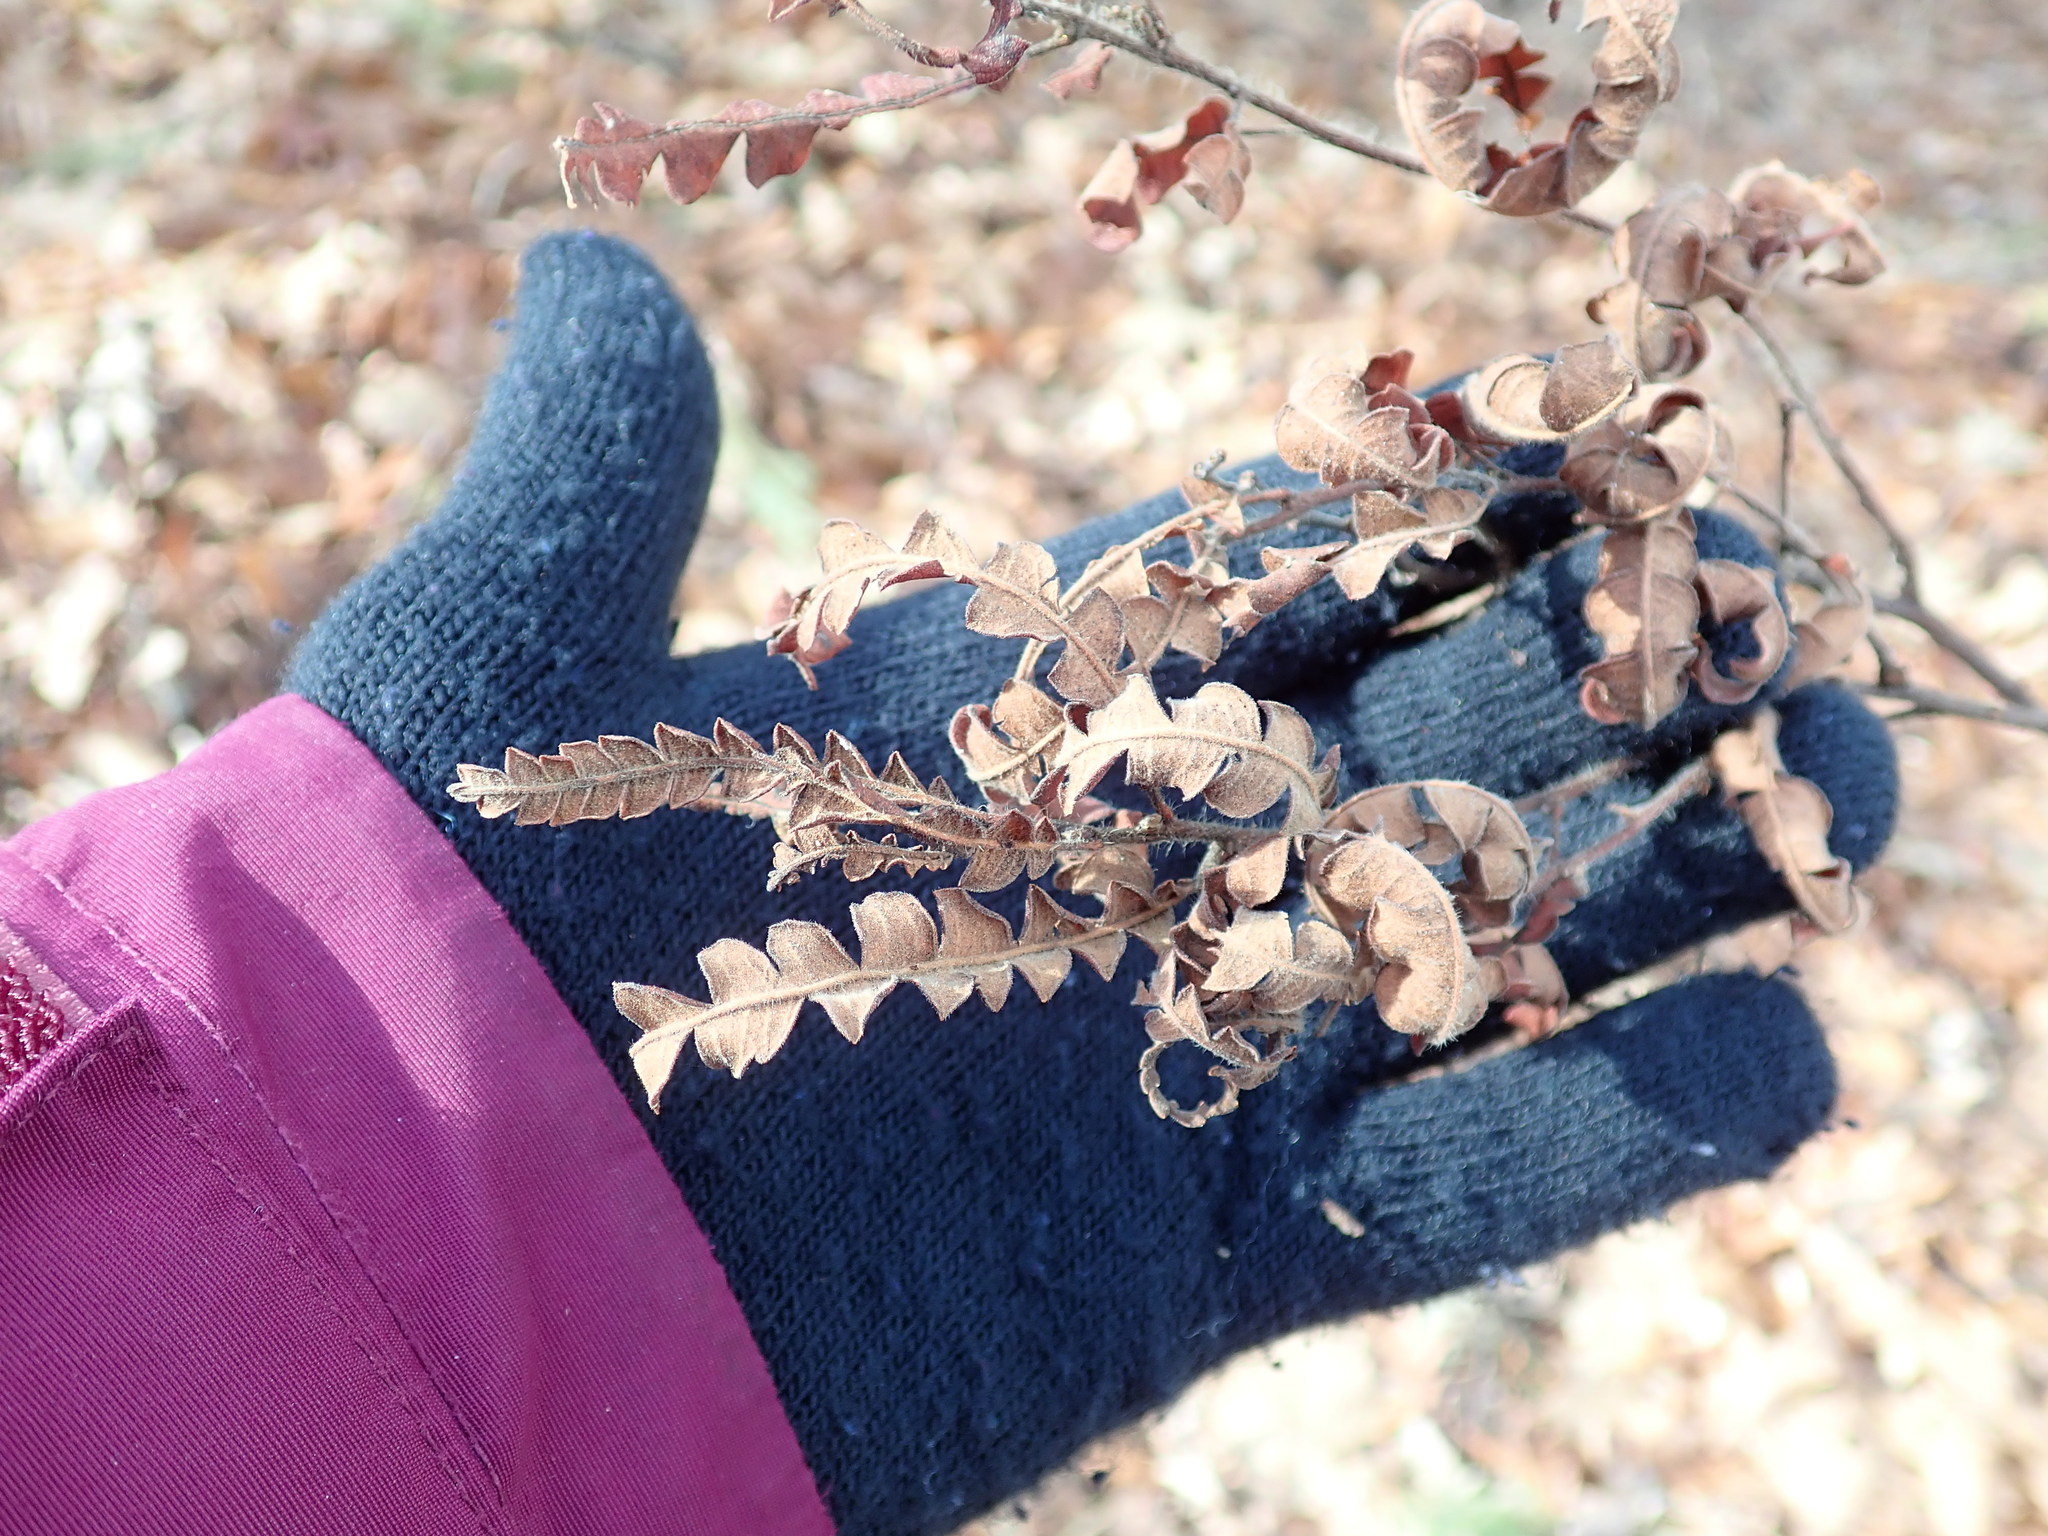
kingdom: Plantae
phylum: Tracheophyta
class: Magnoliopsida
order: Fagales
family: Myricaceae
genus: Comptonia
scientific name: Comptonia peregrina
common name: Sweet-fern
